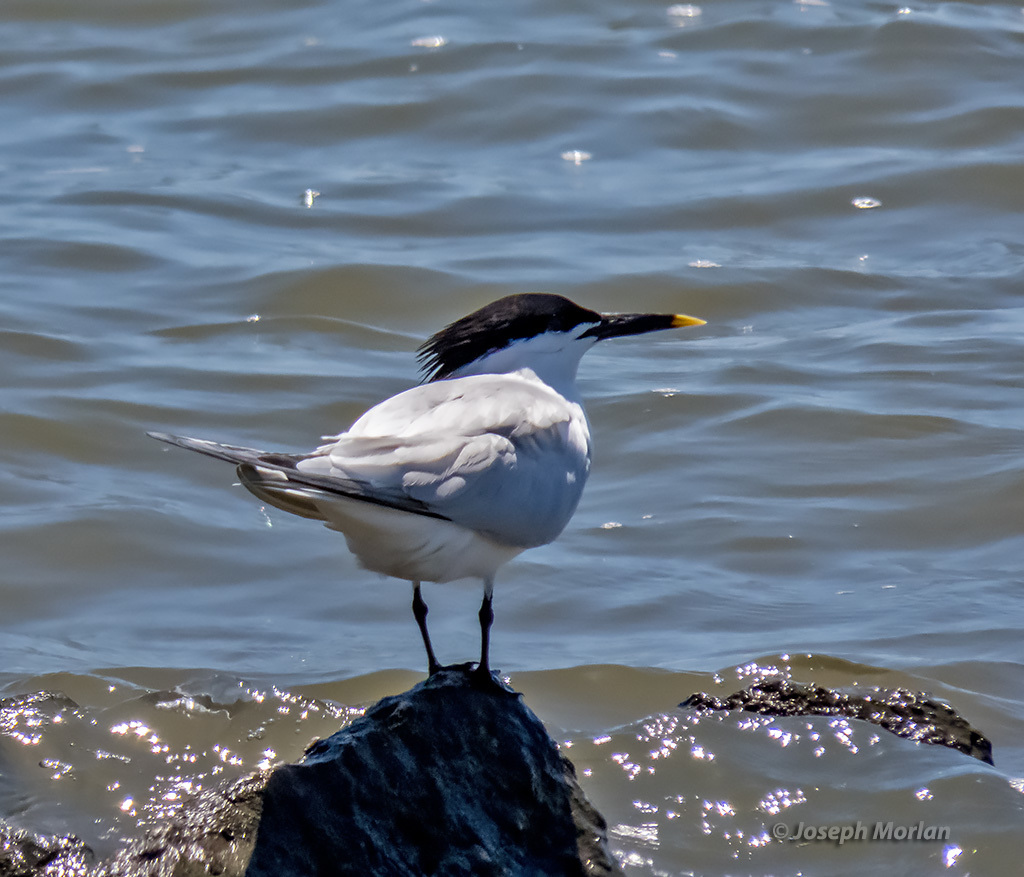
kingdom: Animalia
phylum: Chordata
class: Aves
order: Charadriiformes
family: Laridae
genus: Thalasseus
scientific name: Thalasseus sandvicensis
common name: Sandwich tern
